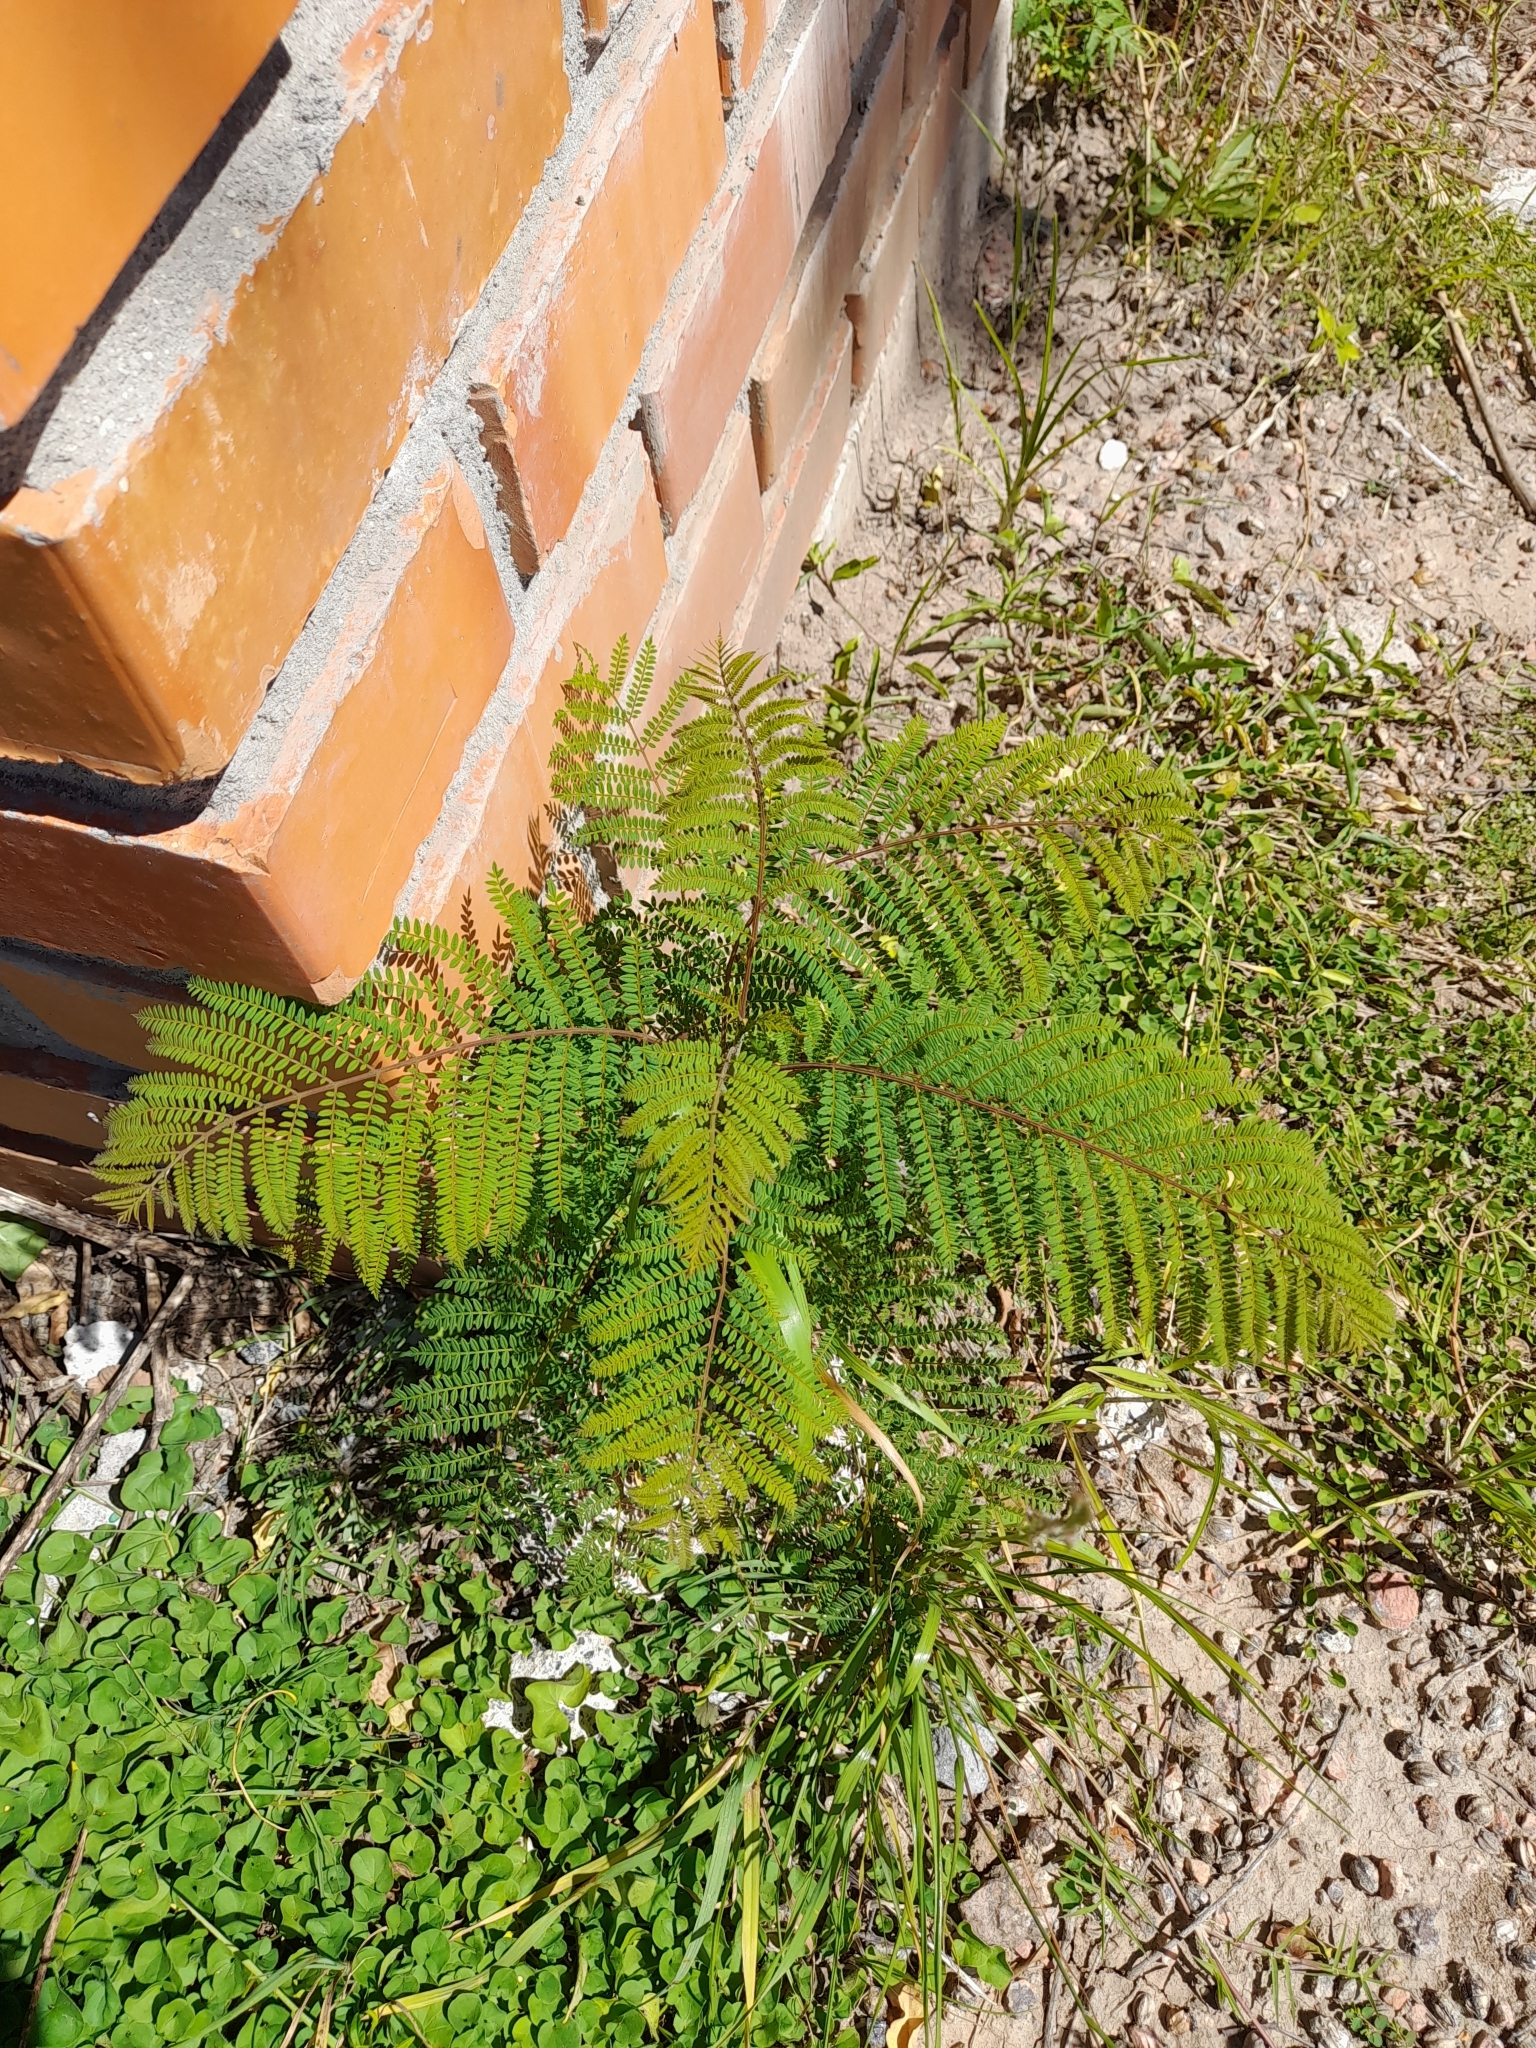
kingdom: Plantae
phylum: Tracheophyta
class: Magnoliopsida
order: Lamiales
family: Bignoniaceae
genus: Jacaranda
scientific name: Jacaranda mimosifolia
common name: Black poui
